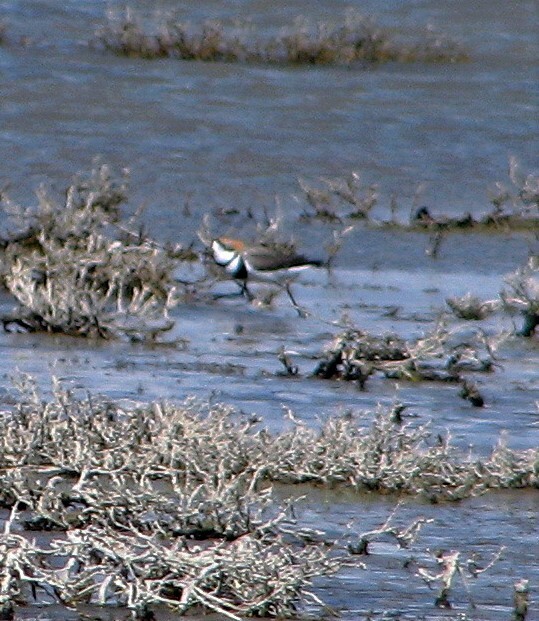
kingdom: Animalia
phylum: Chordata
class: Aves
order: Charadriiformes
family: Charadriidae
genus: Anarhynchus
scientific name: Anarhynchus
